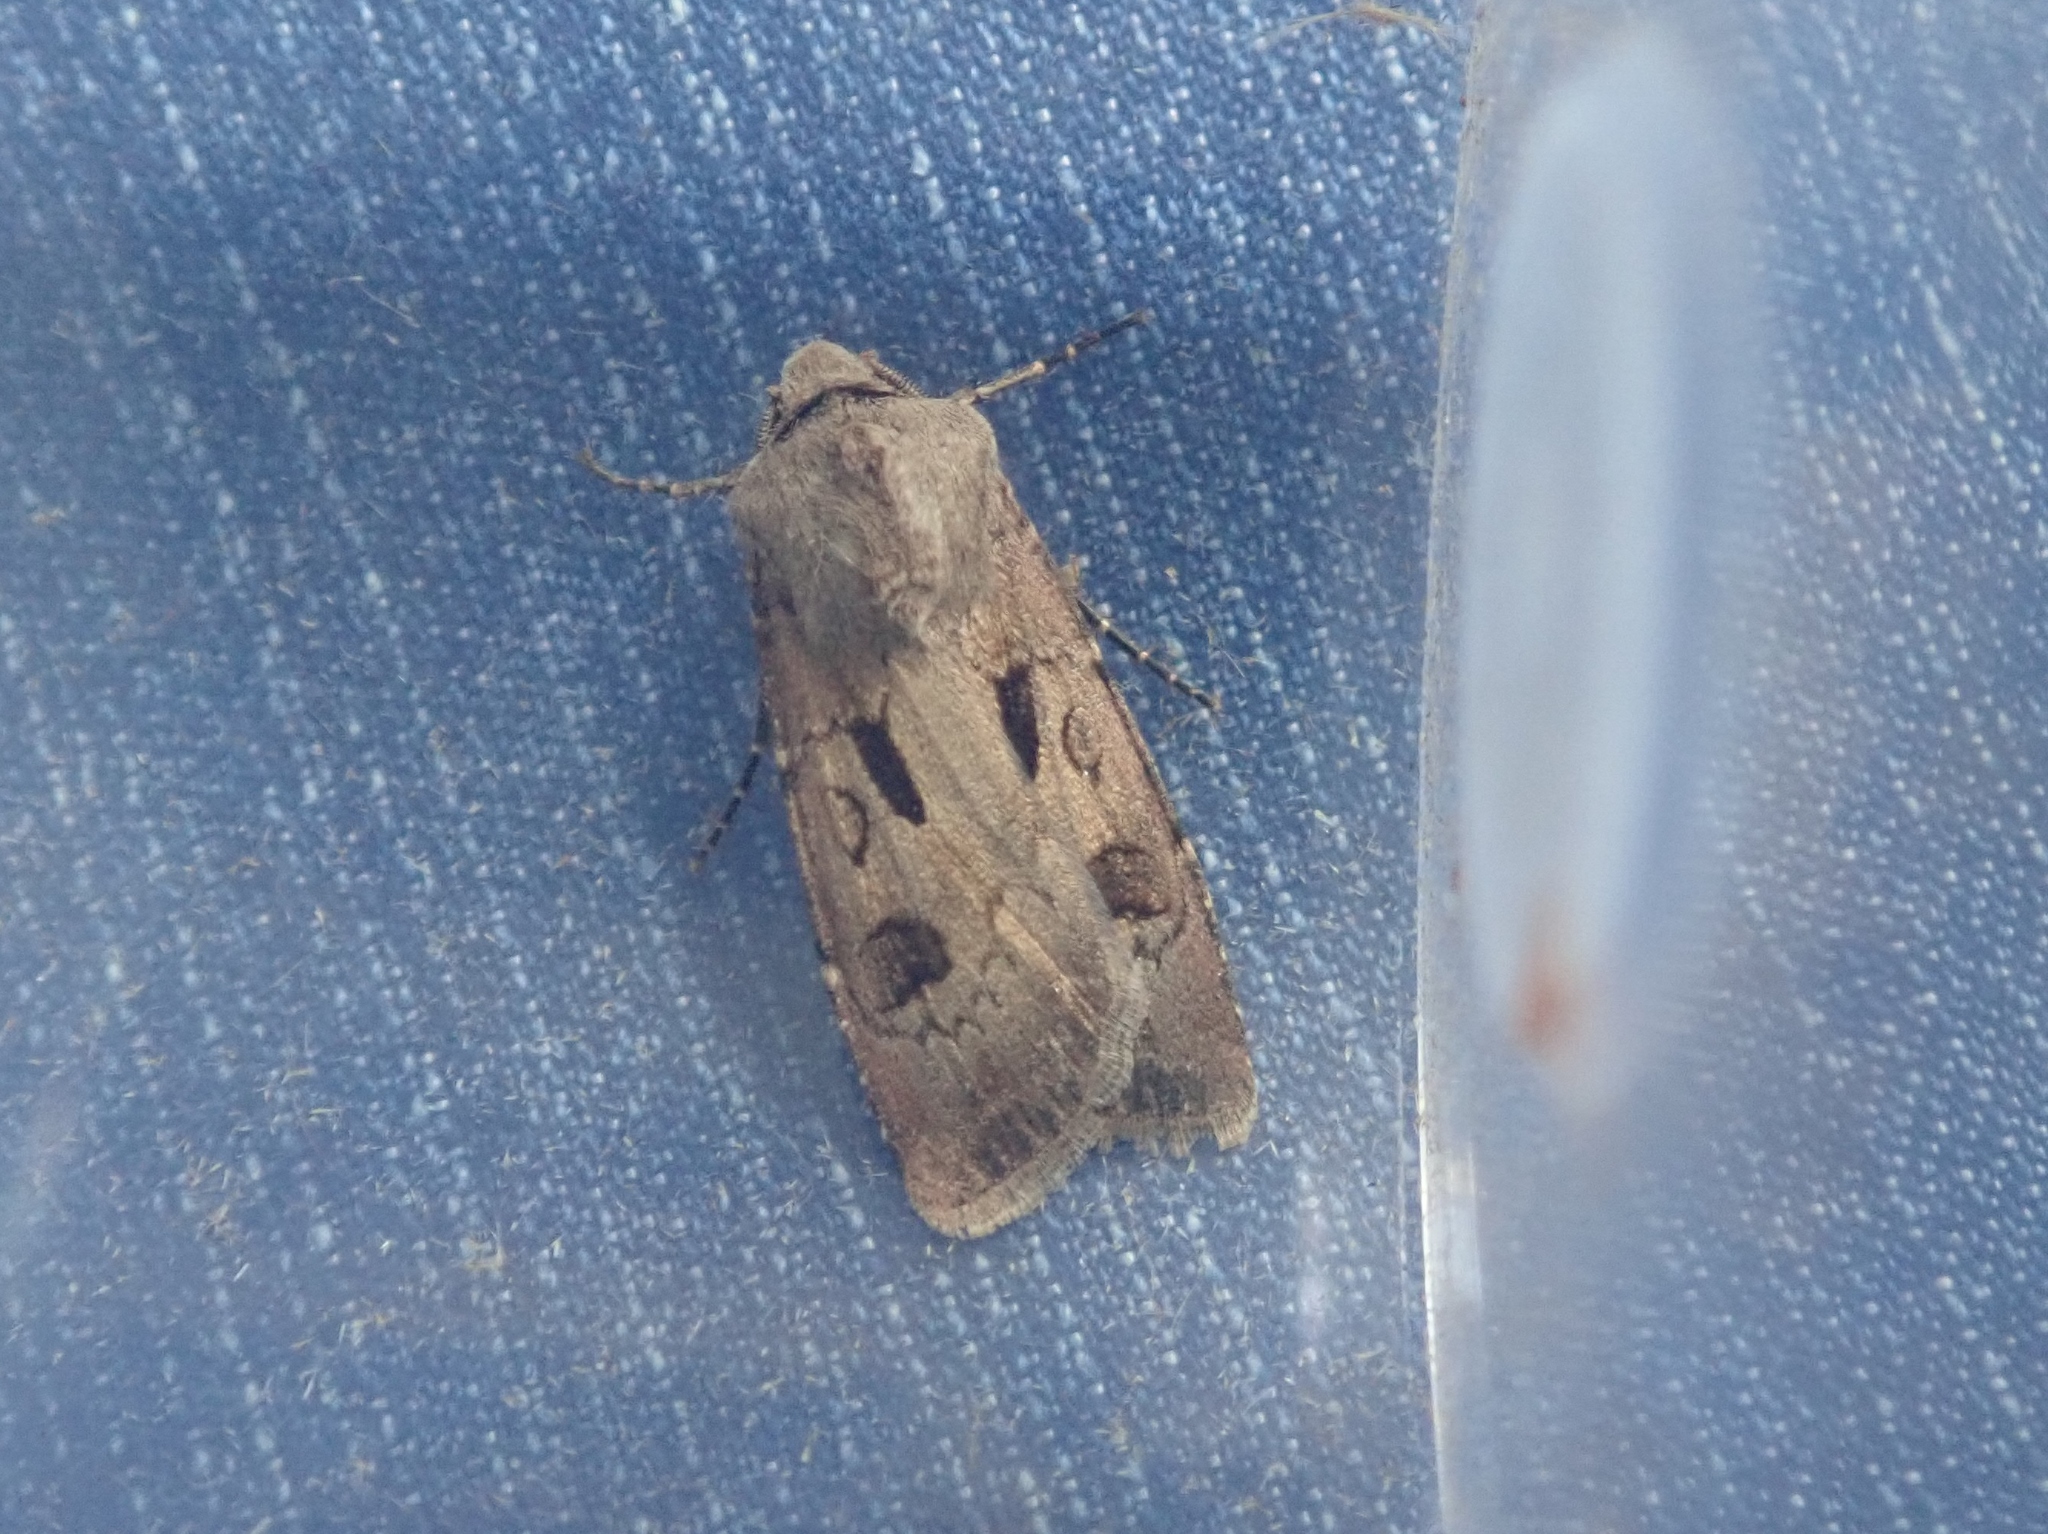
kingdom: Animalia
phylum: Arthropoda
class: Insecta
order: Lepidoptera
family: Noctuidae
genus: Agrotis
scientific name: Agrotis exclamationis
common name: Heart and dart
